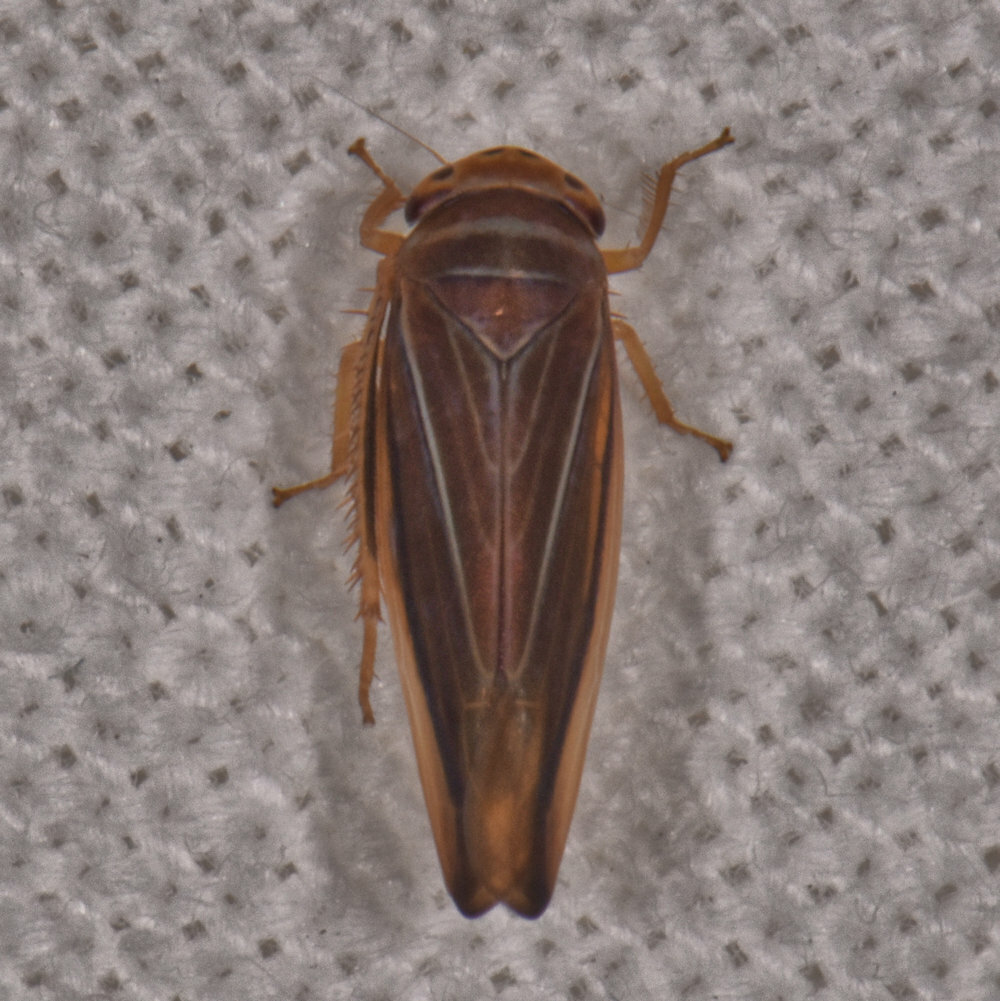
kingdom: Animalia
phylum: Arthropoda
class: Insecta
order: Hemiptera
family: Cicadellidae
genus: Idiodonus
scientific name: Idiodonus kennicotti
